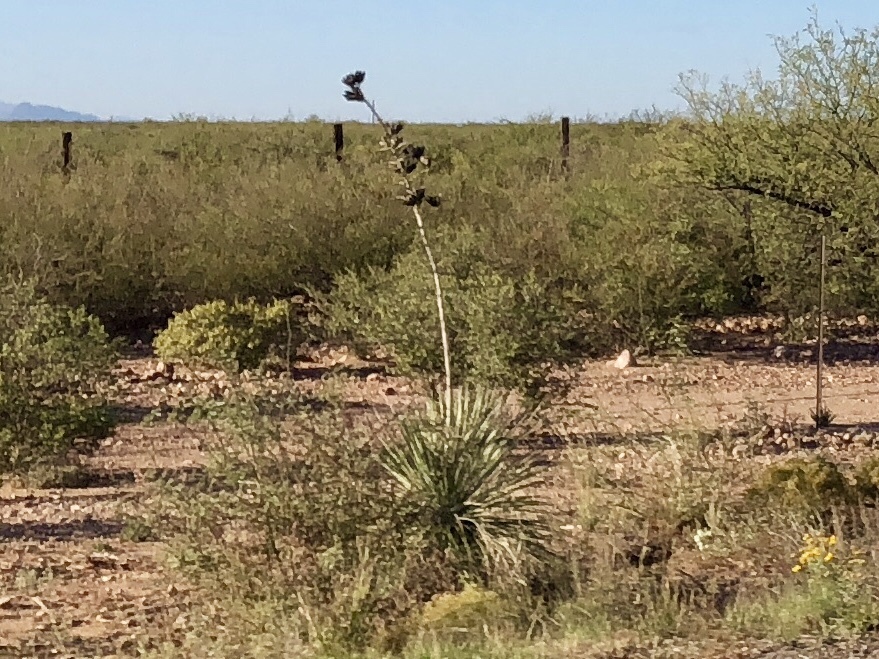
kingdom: Plantae
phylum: Tracheophyta
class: Liliopsida
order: Asparagales
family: Asparagaceae
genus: Yucca
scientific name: Yucca elata
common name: Palmella
